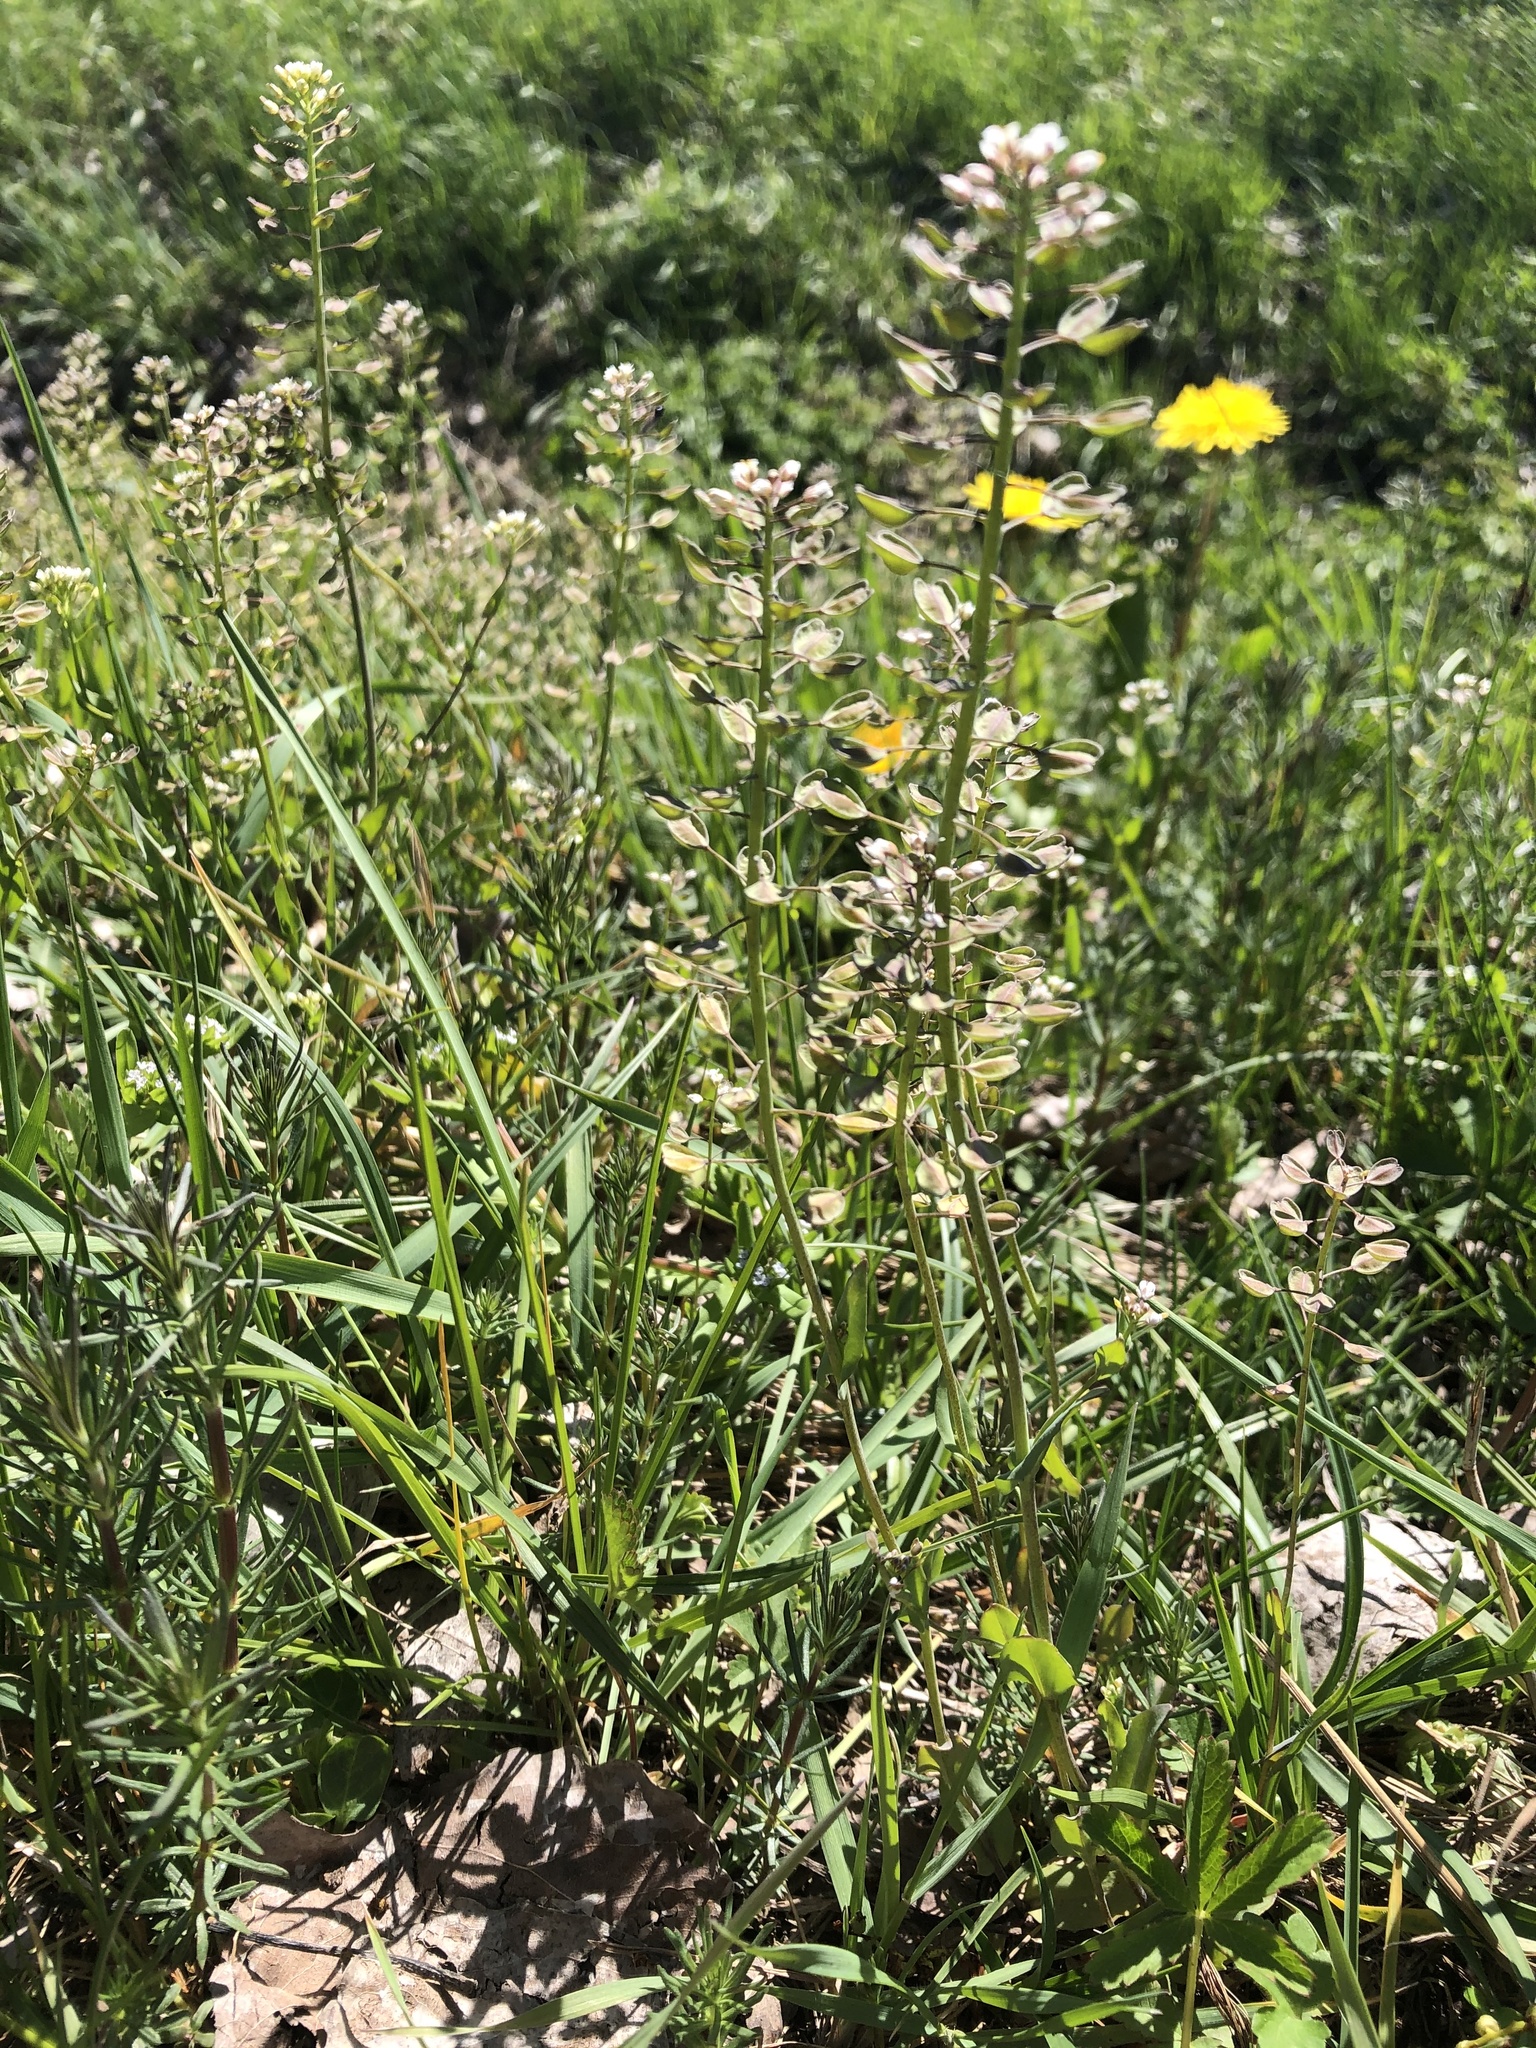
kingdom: Plantae
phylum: Tracheophyta
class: Magnoliopsida
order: Brassicales
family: Brassicaceae
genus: Noccaea
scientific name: Noccaea perfoliata
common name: Perfoliate pennycress
